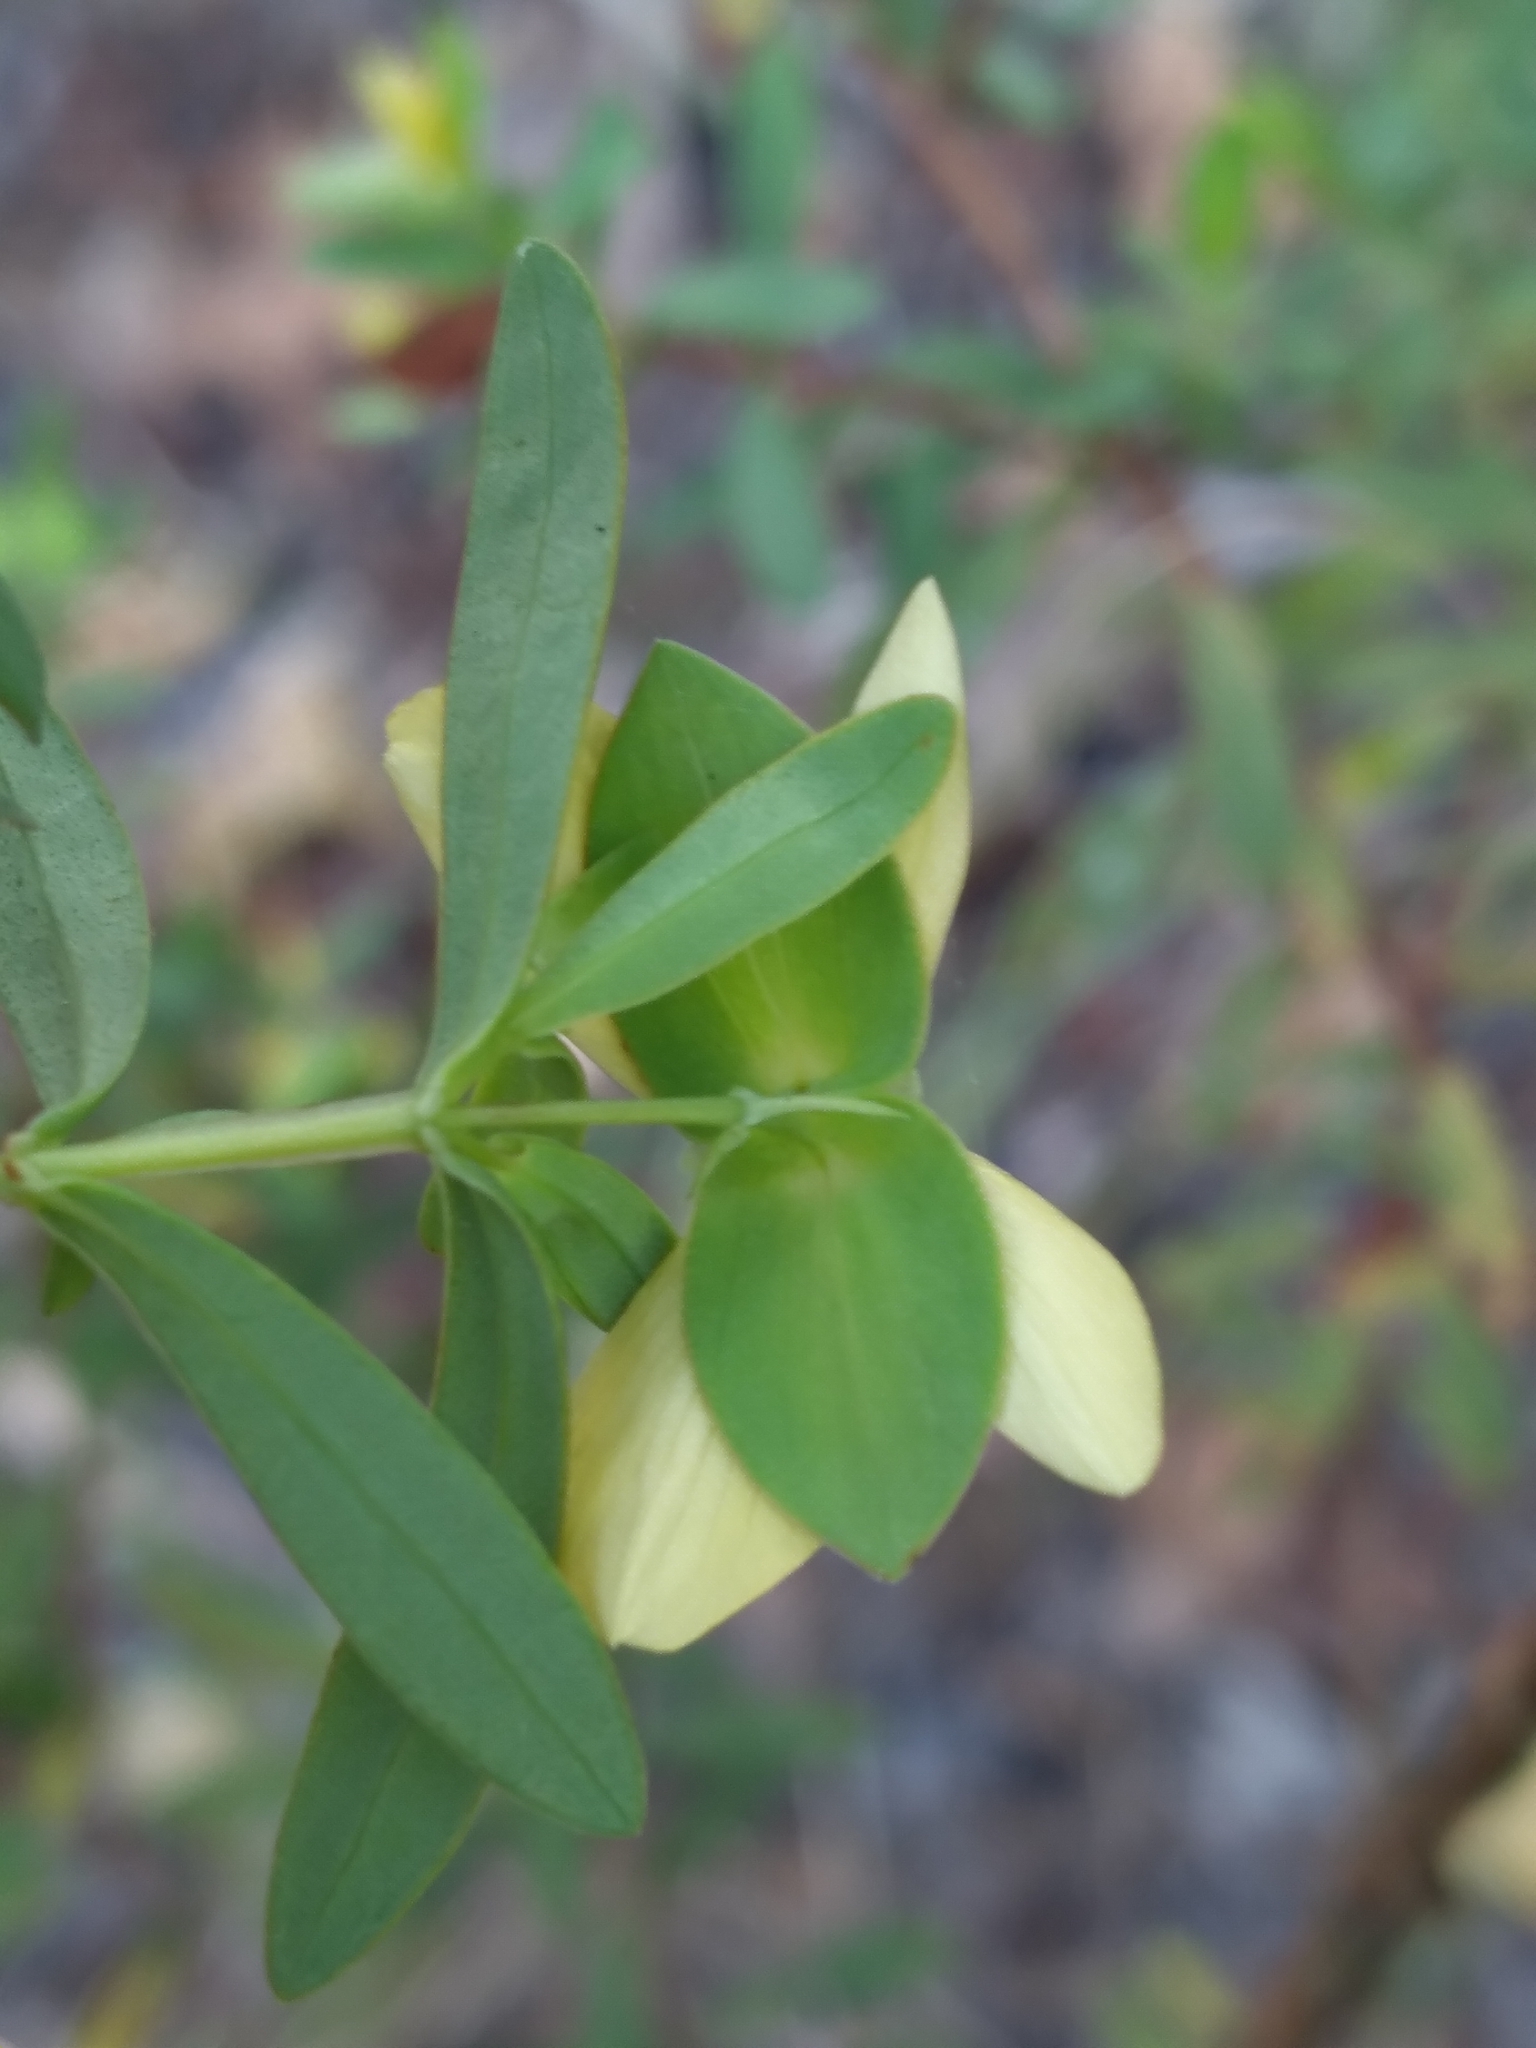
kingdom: Plantae
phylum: Tracheophyta
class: Magnoliopsida
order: Malpighiales
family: Hypericaceae
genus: Hypericum
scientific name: Hypericum hypericoides
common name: St. andrew's cross
